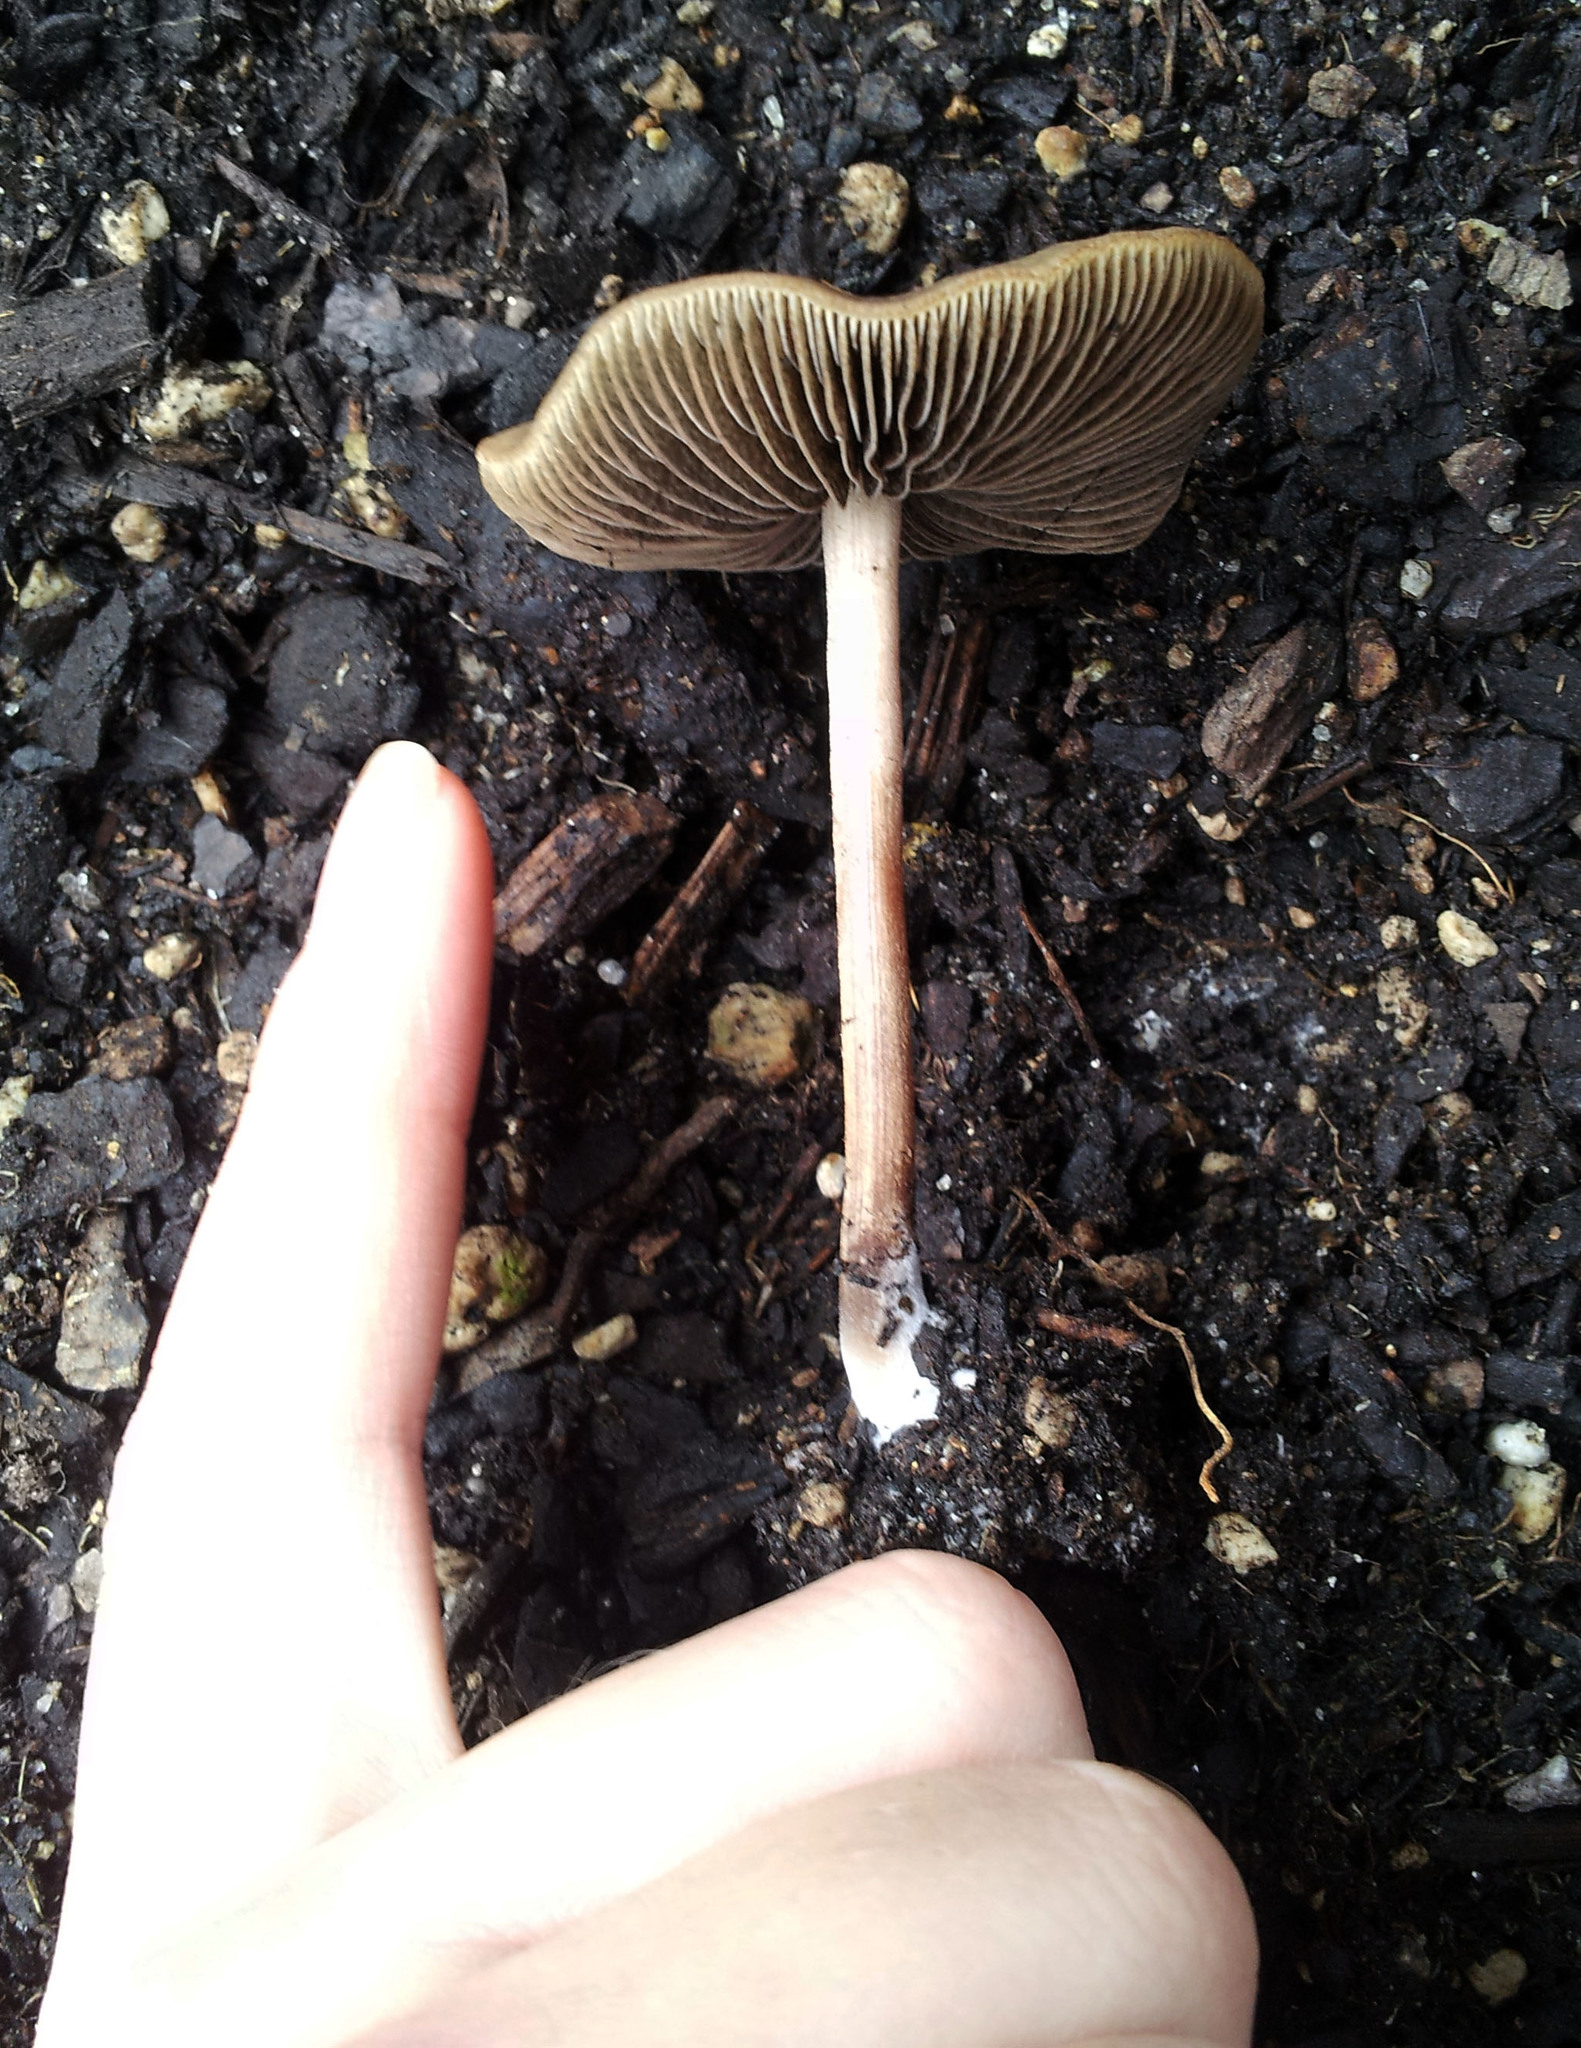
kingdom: Fungi
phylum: Basidiomycota
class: Agaricomycetes
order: Agaricales
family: Bolbitiaceae
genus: Panaeolus
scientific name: Panaeolus cinctulus
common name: Banded mottlegill
